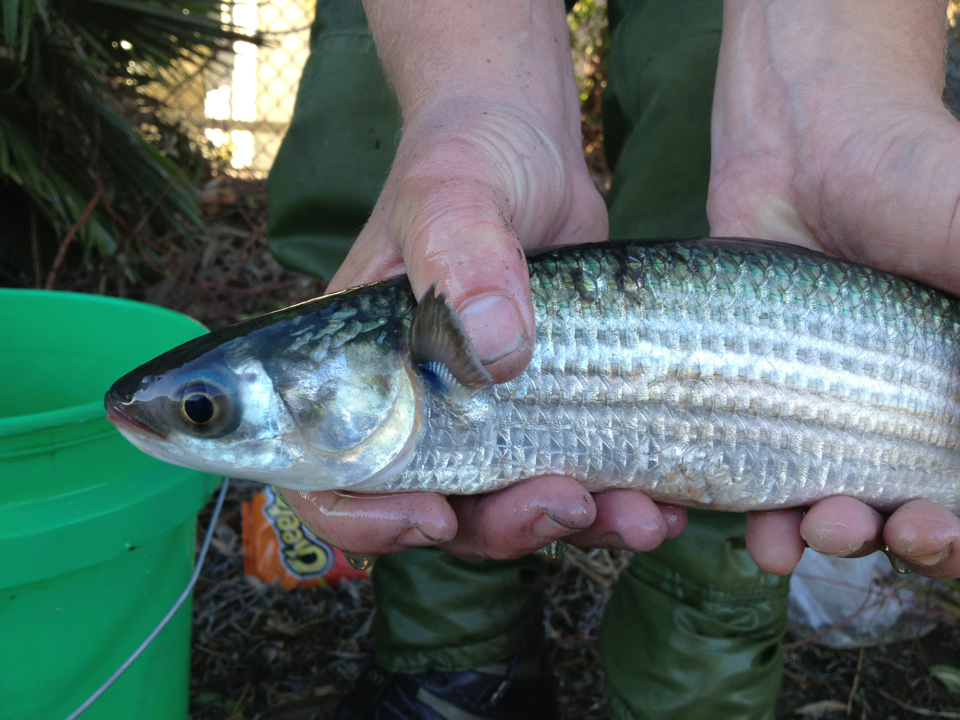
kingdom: Animalia
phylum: Chordata
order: Mugiliformes
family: Mugilidae
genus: Mugil
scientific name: Mugil cephalus
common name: Grey mullet
